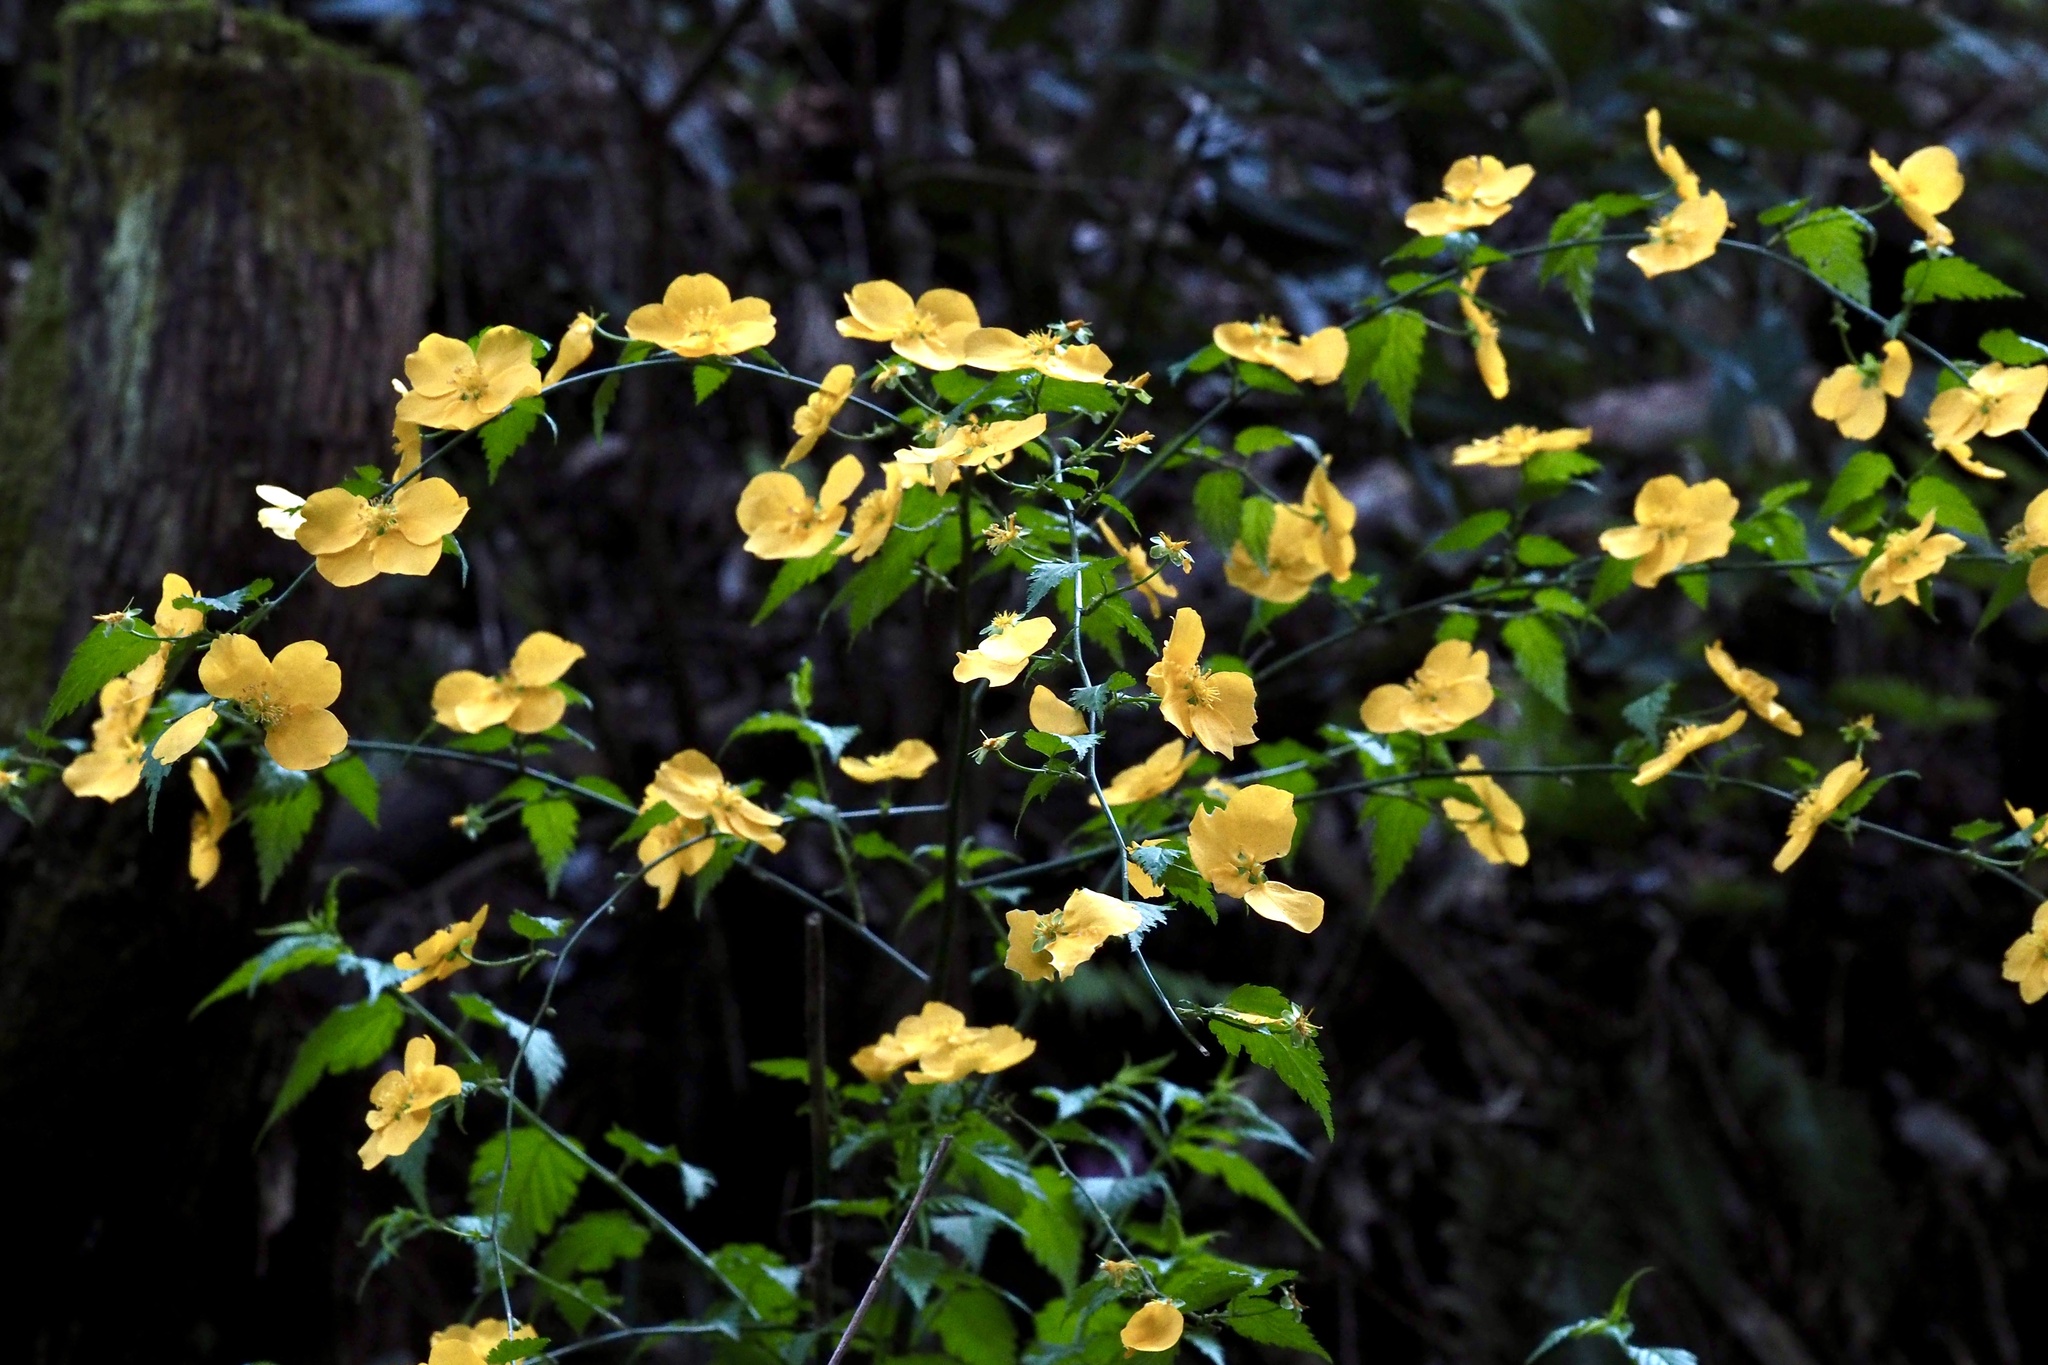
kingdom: Plantae
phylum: Tracheophyta
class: Magnoliopsida
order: Rosales
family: Rosaceae
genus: Kerria
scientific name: Kerria japonica
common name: Japanese kerria
